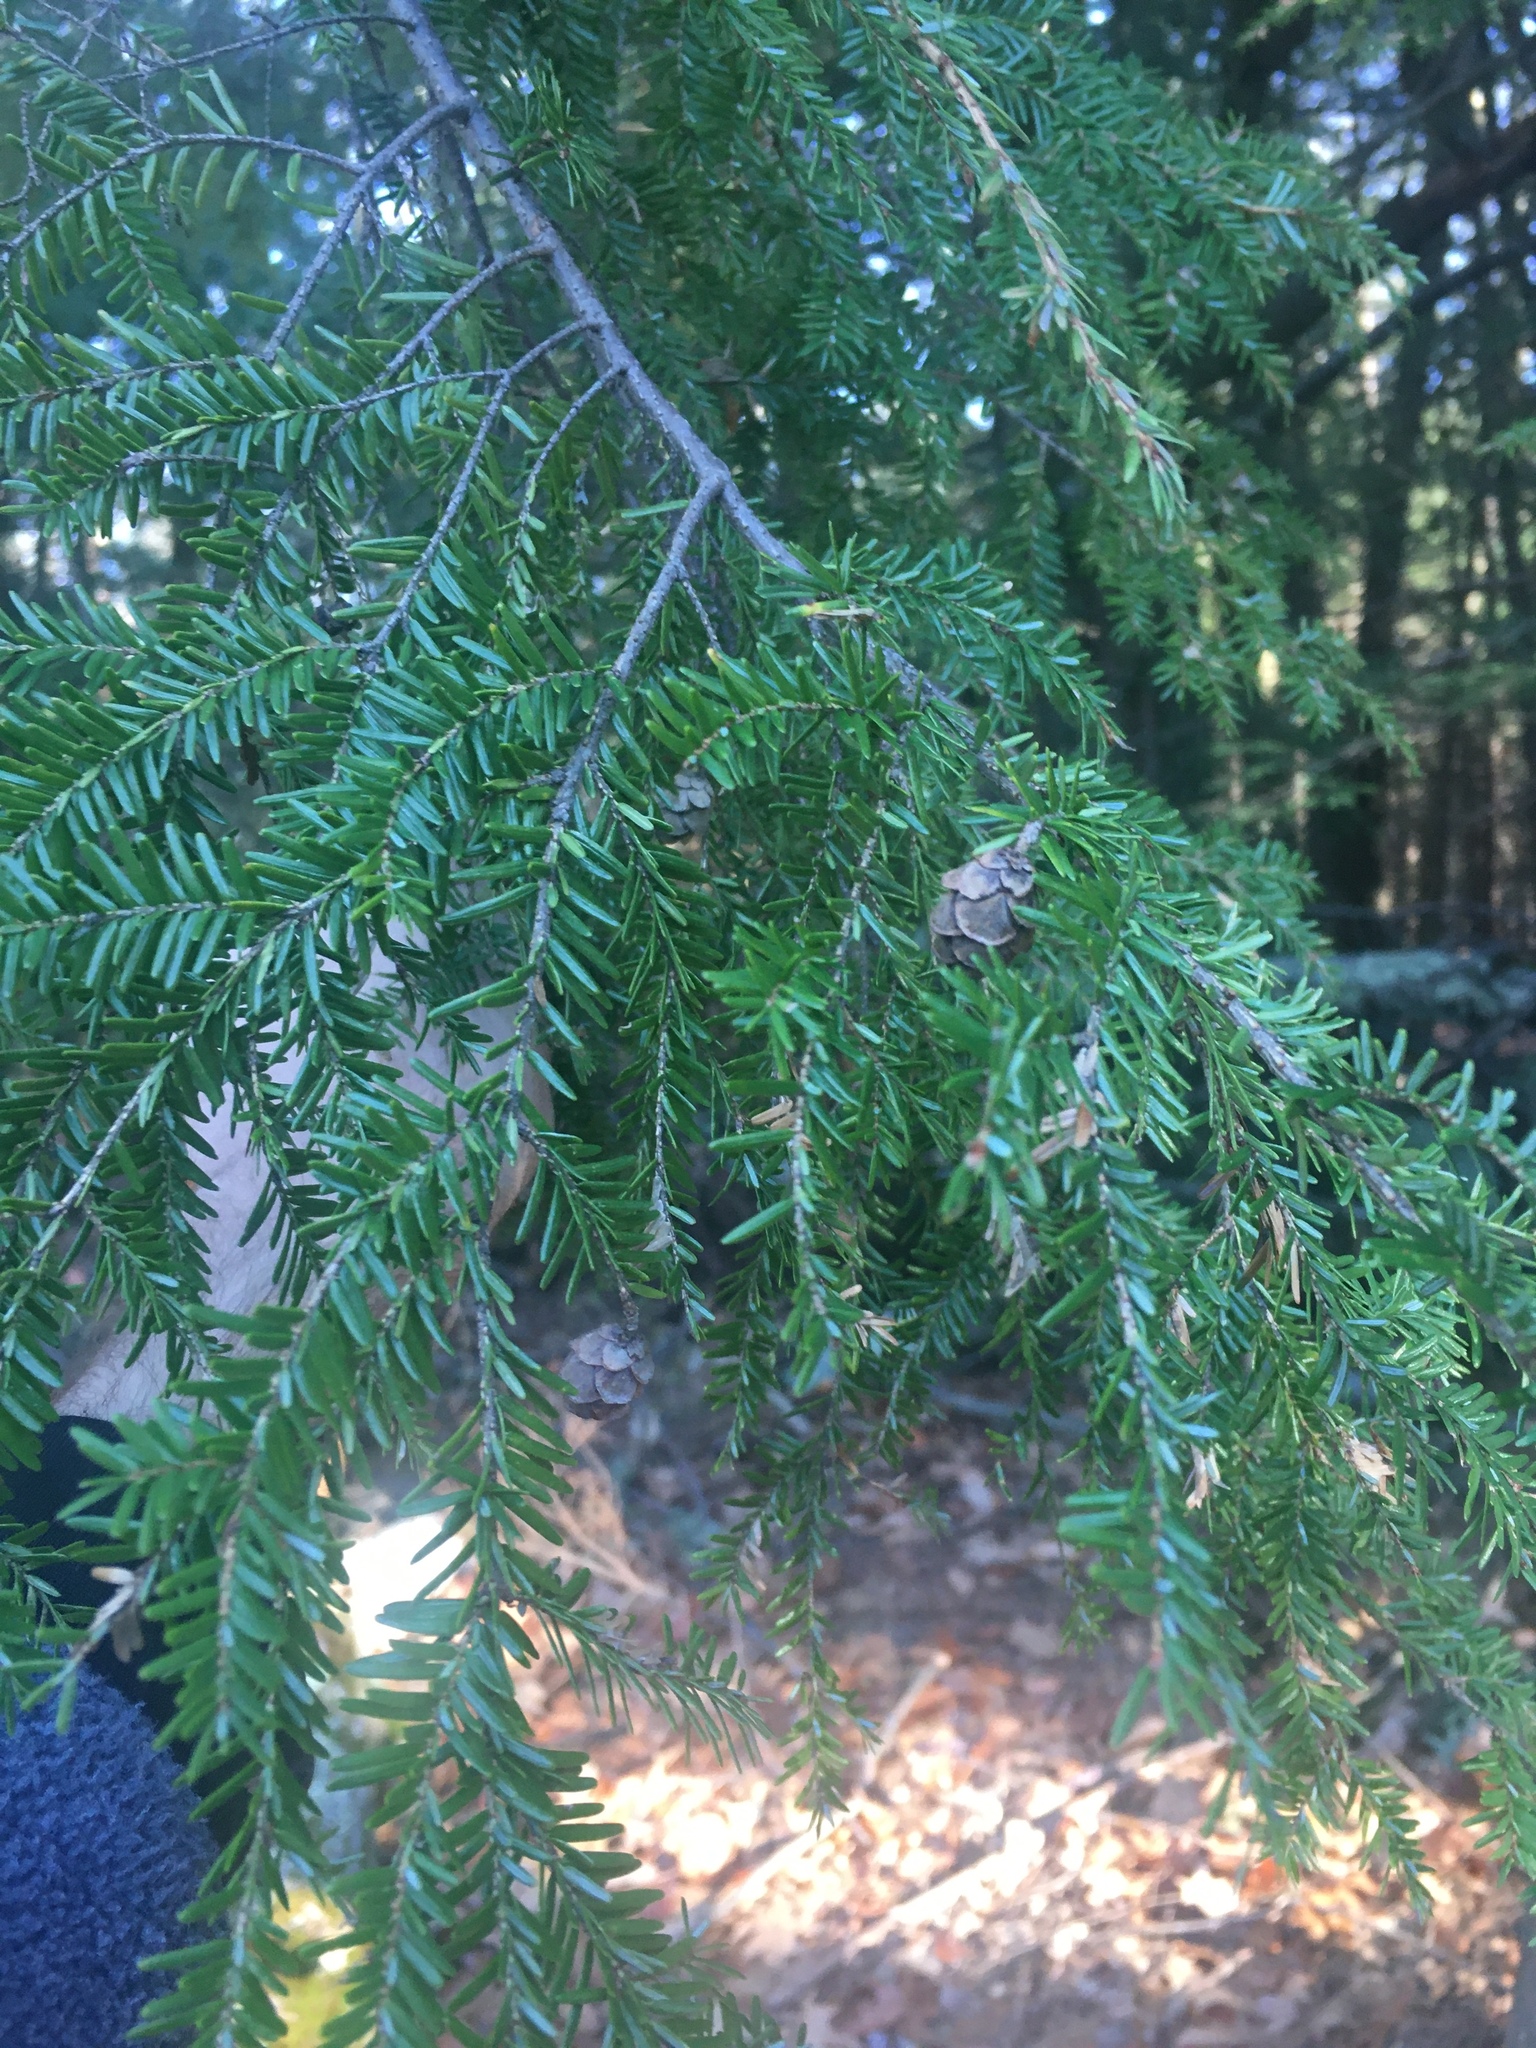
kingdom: Plantae
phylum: Tracheophyta
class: Pinopsida
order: Pinales
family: Pinaceae
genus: Tsuga
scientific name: Tsuga canadensis
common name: Eastern hemlock
